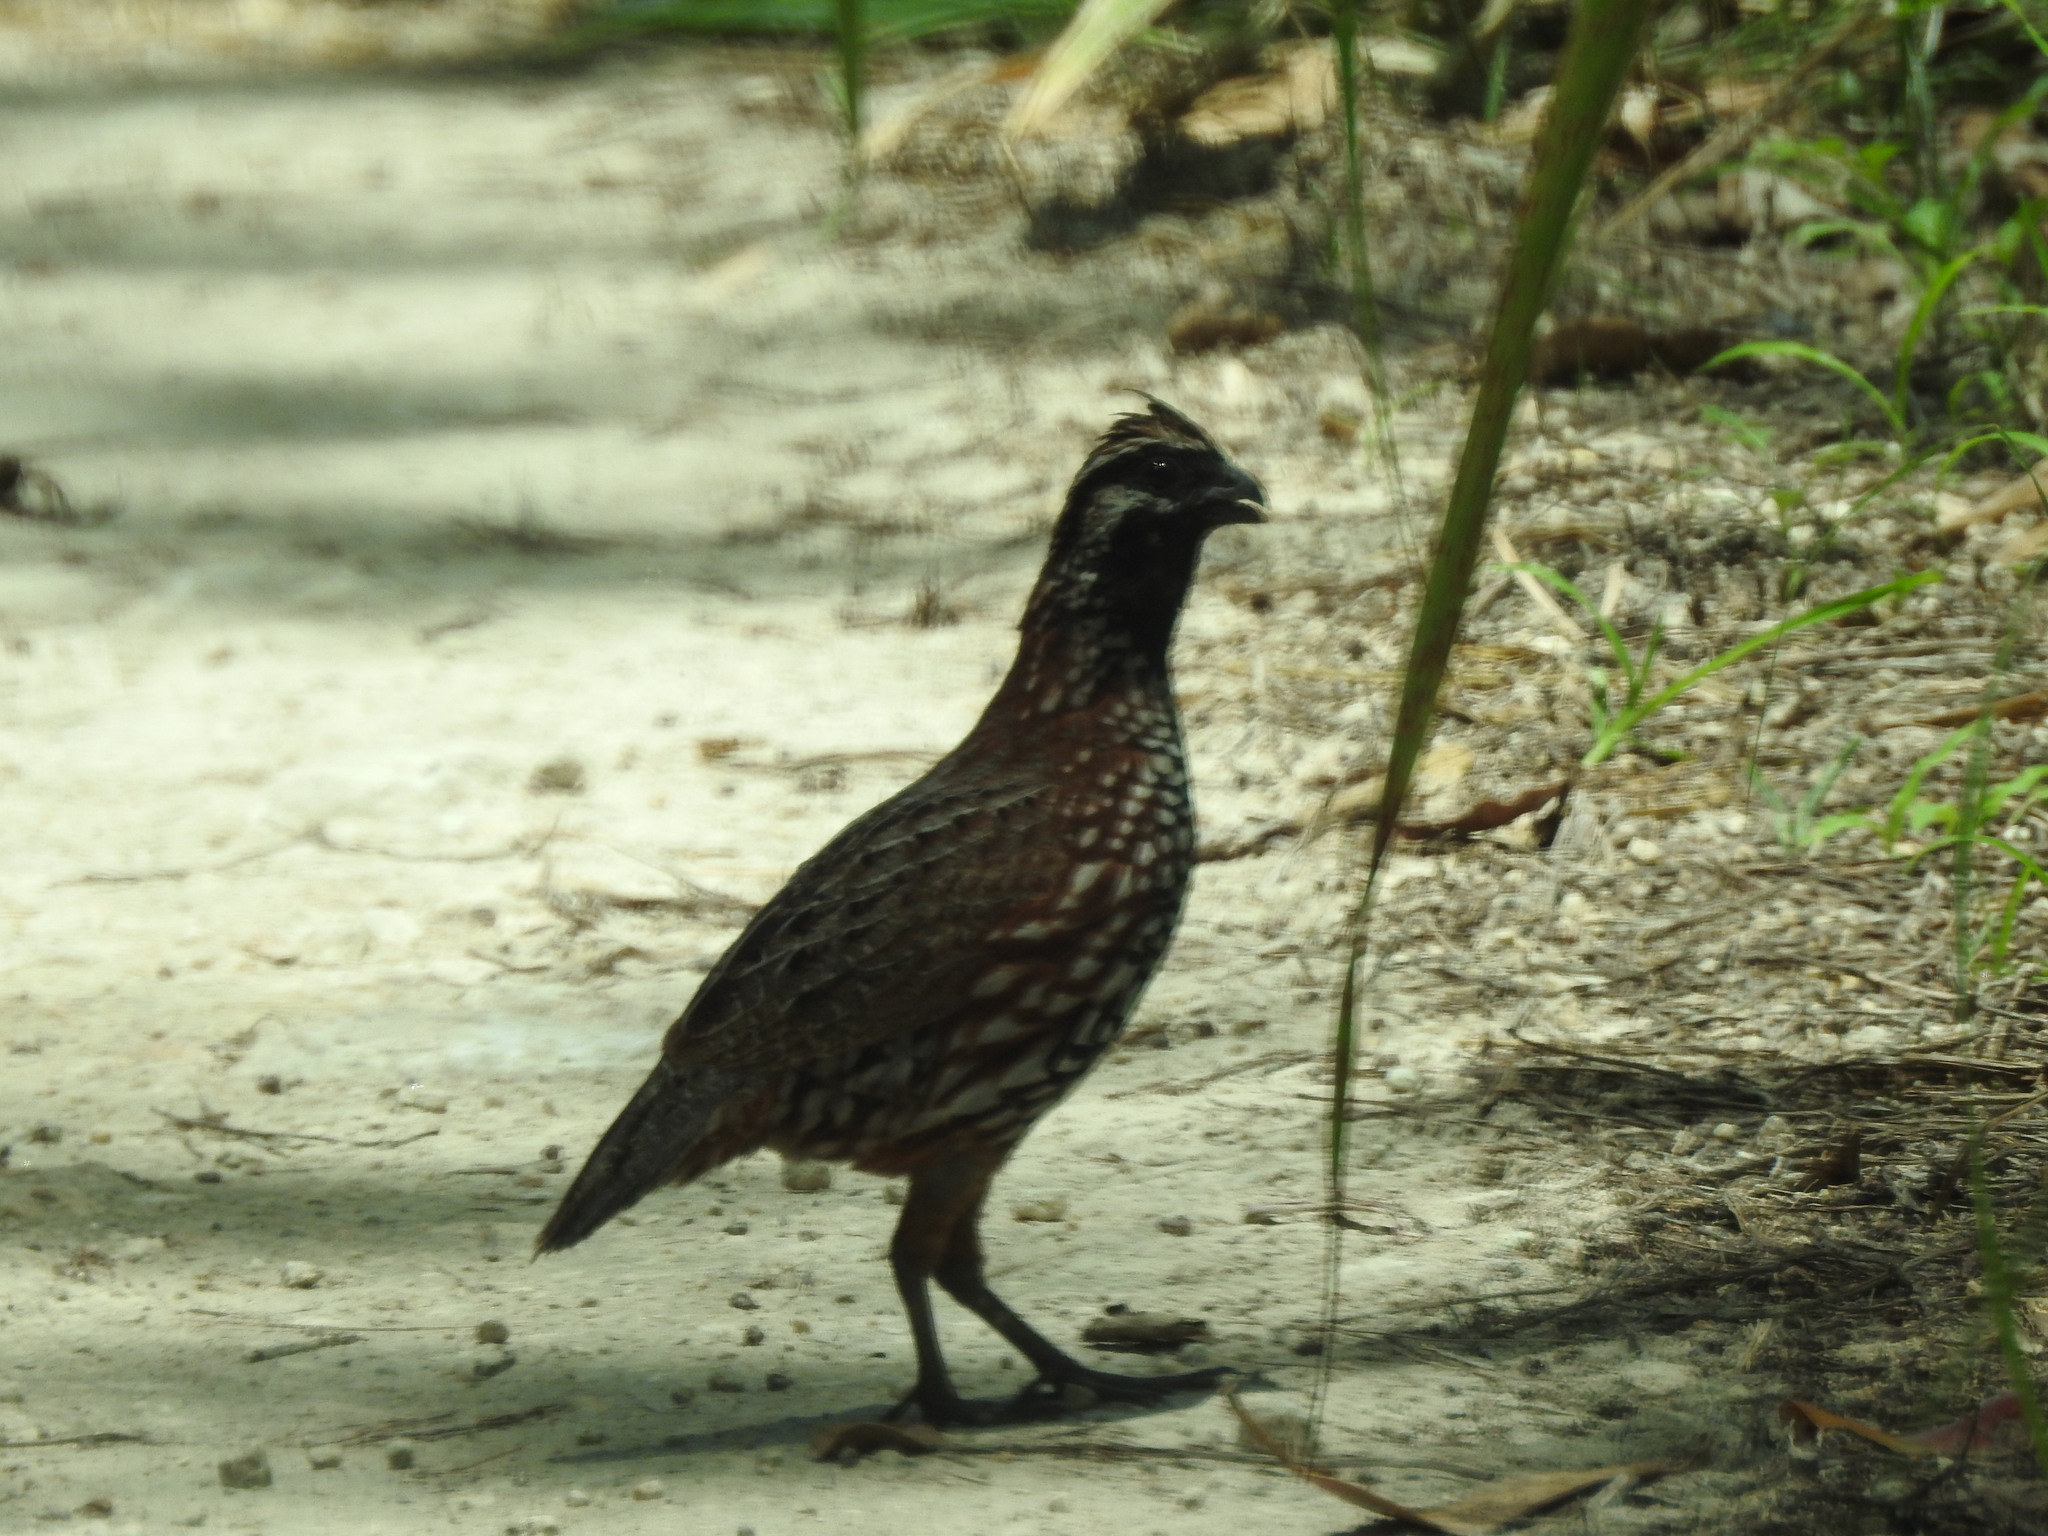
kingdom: Animalia
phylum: Chordata
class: Aves
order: Galliformes
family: Odontophoridae
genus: Colinus
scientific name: Colinus nigrogularis
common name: Yucatan bobwhite
